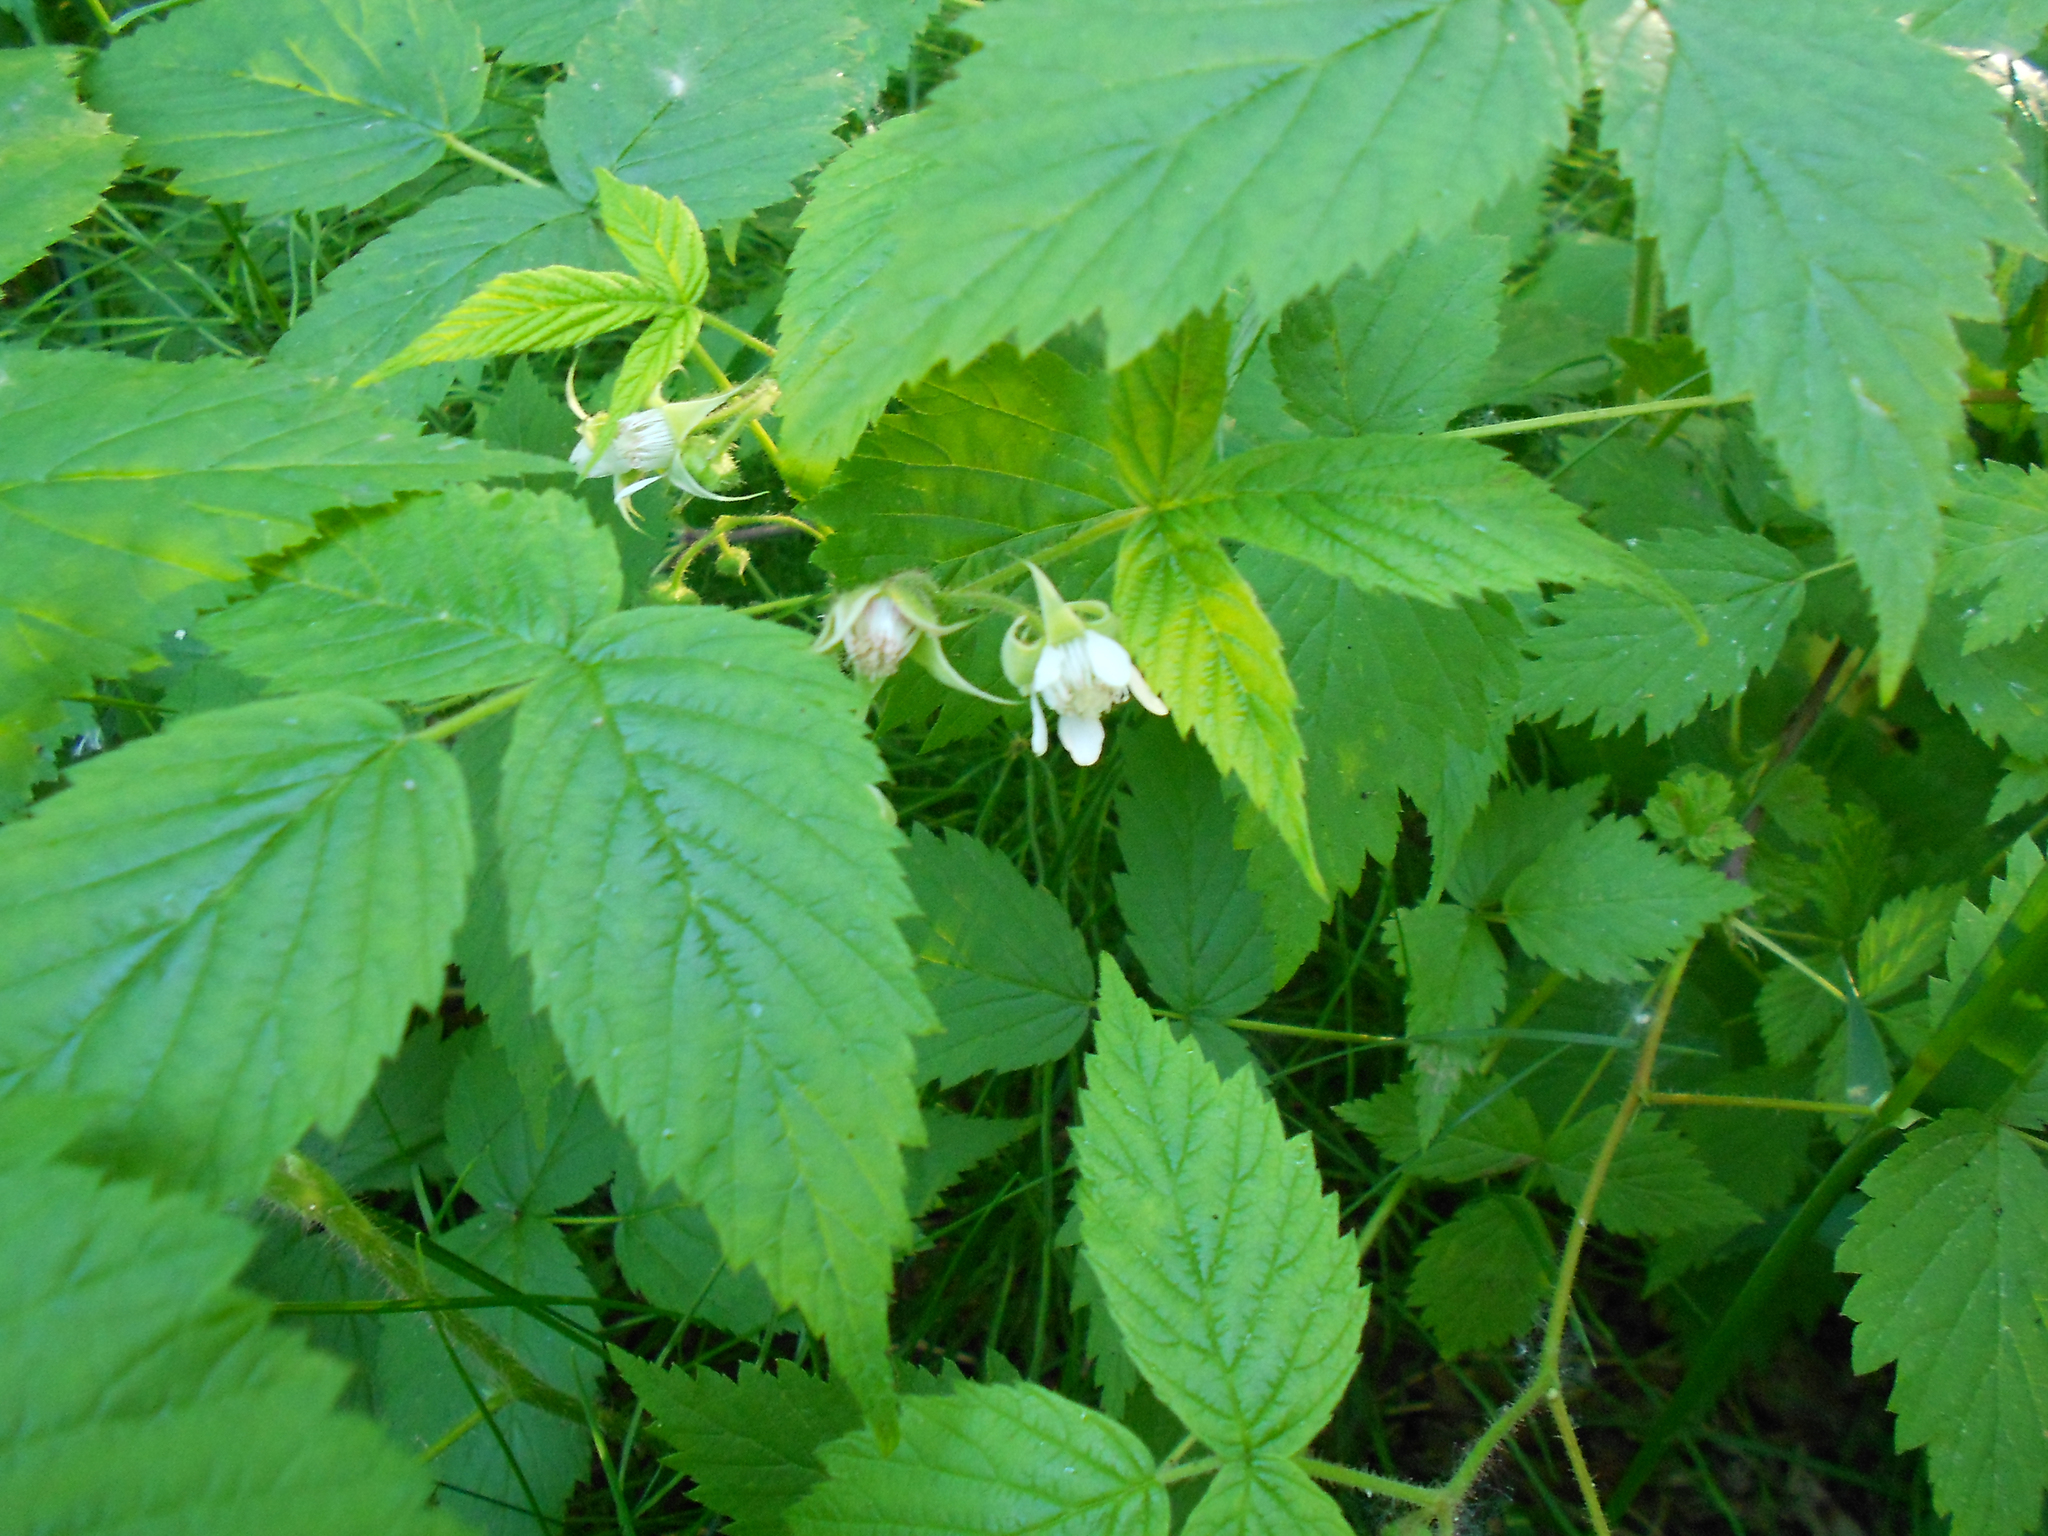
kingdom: Plantae
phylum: Tracheophyta
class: Magnoliopsida
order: Rosales
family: Rosaceae
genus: Rubus
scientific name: Rubus idaeus
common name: Raspberry
